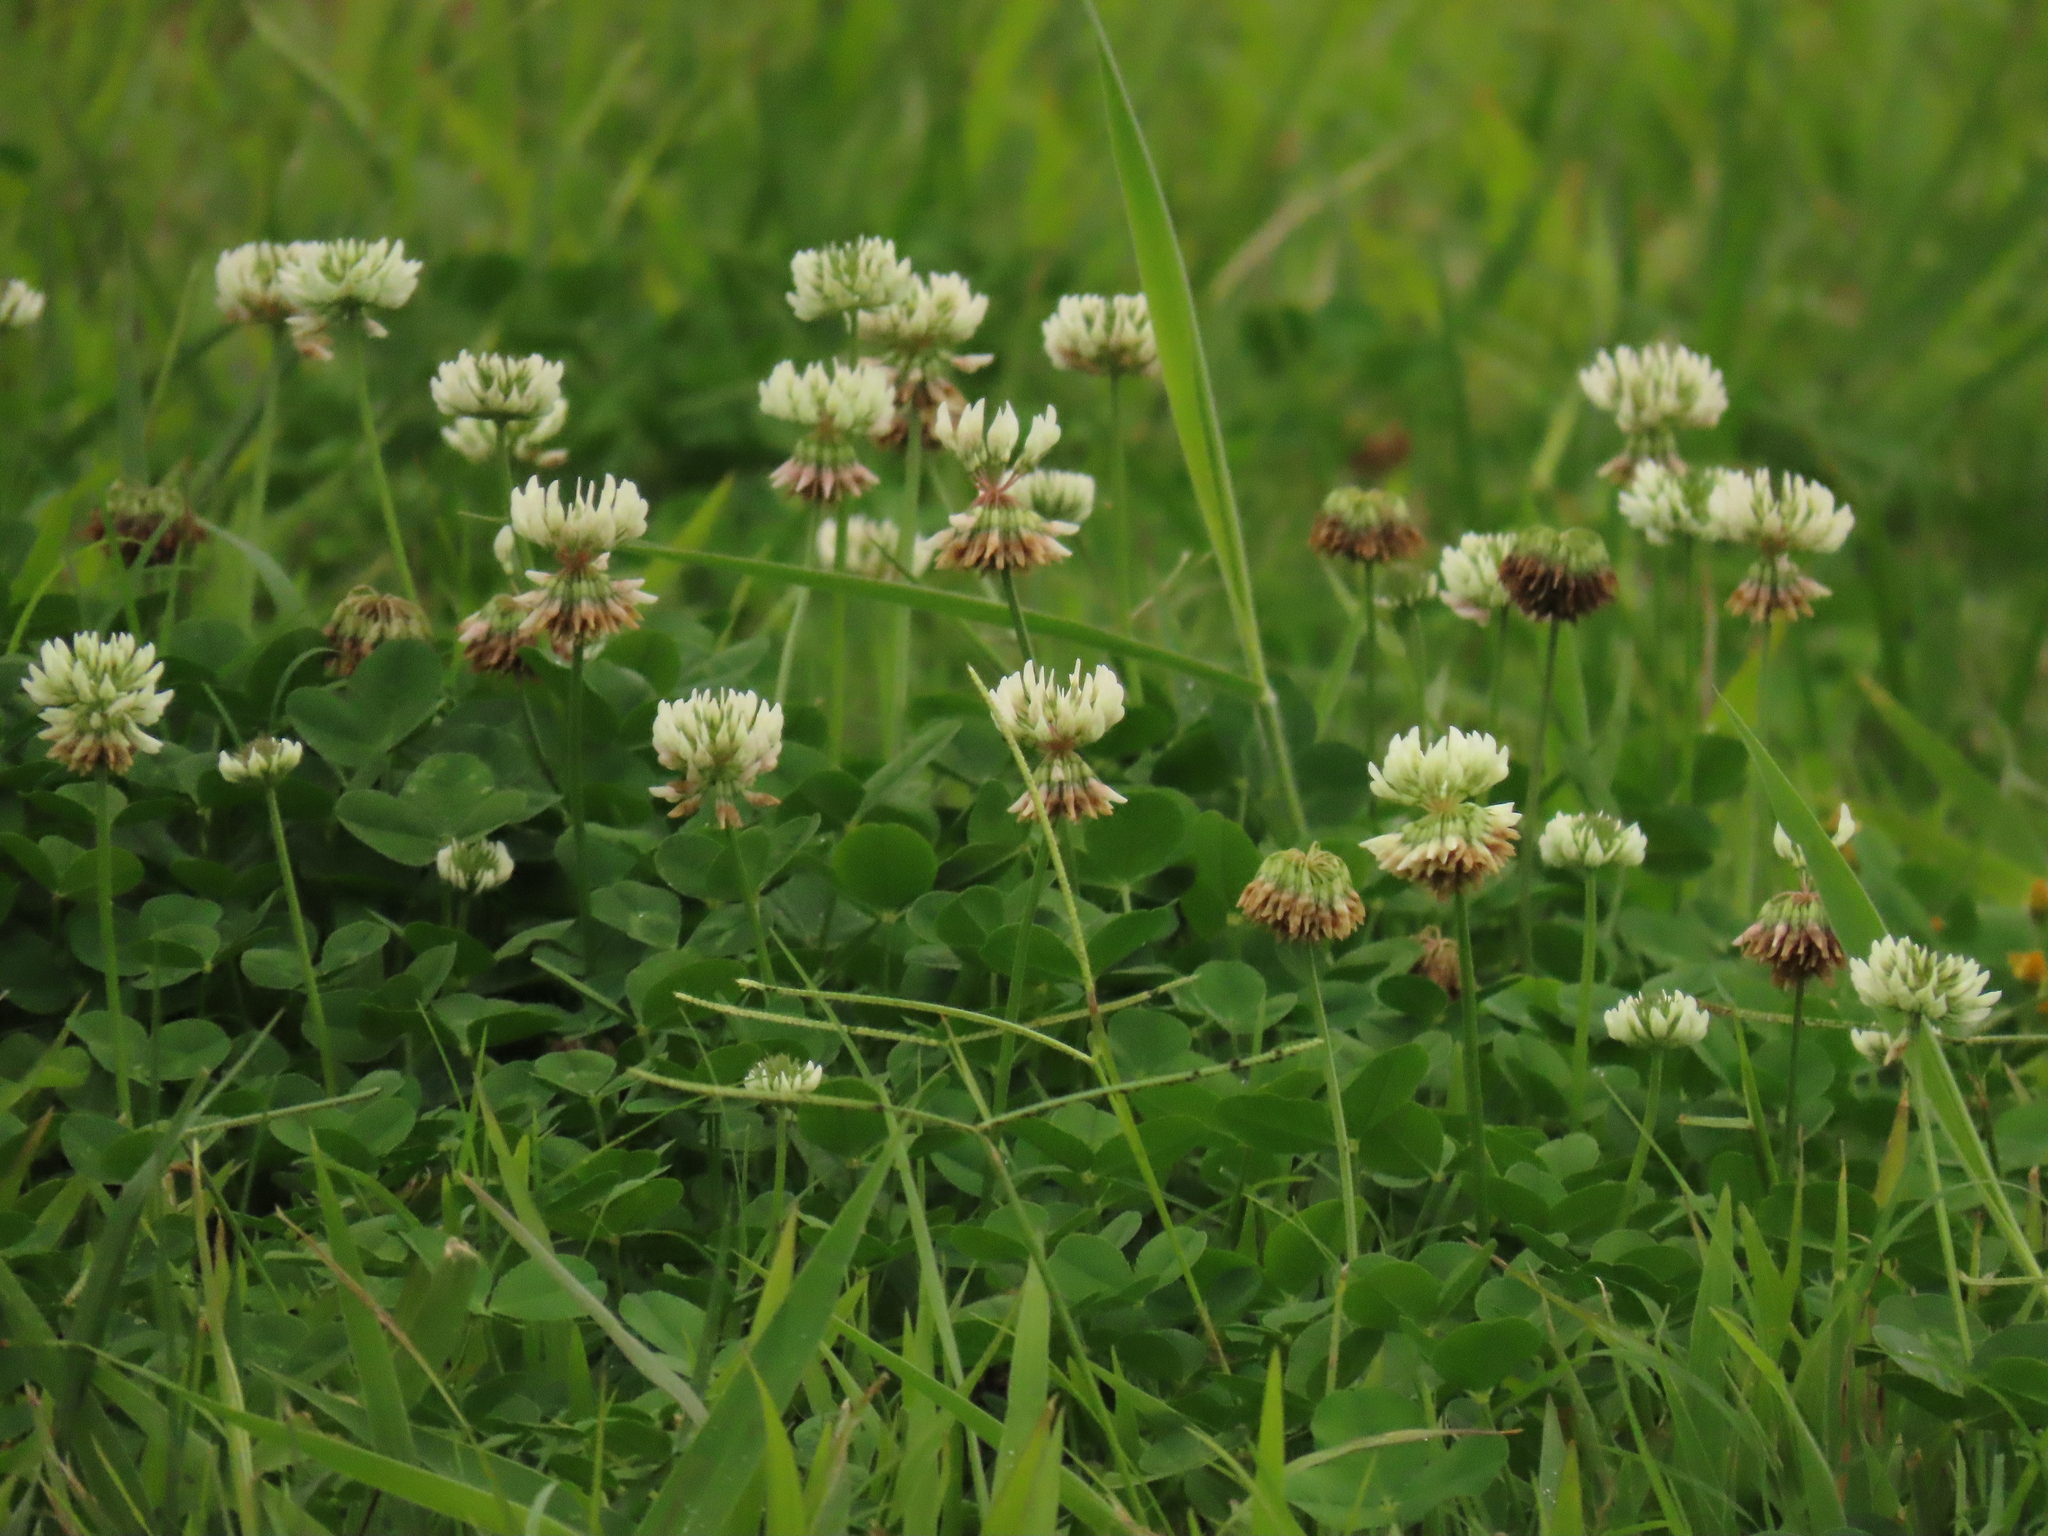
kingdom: Plantae
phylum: Tracheophyta
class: Magnoliopsida
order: Fabales
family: Fabaceae
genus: Trifolium
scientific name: Trifolium repens
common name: White clover
